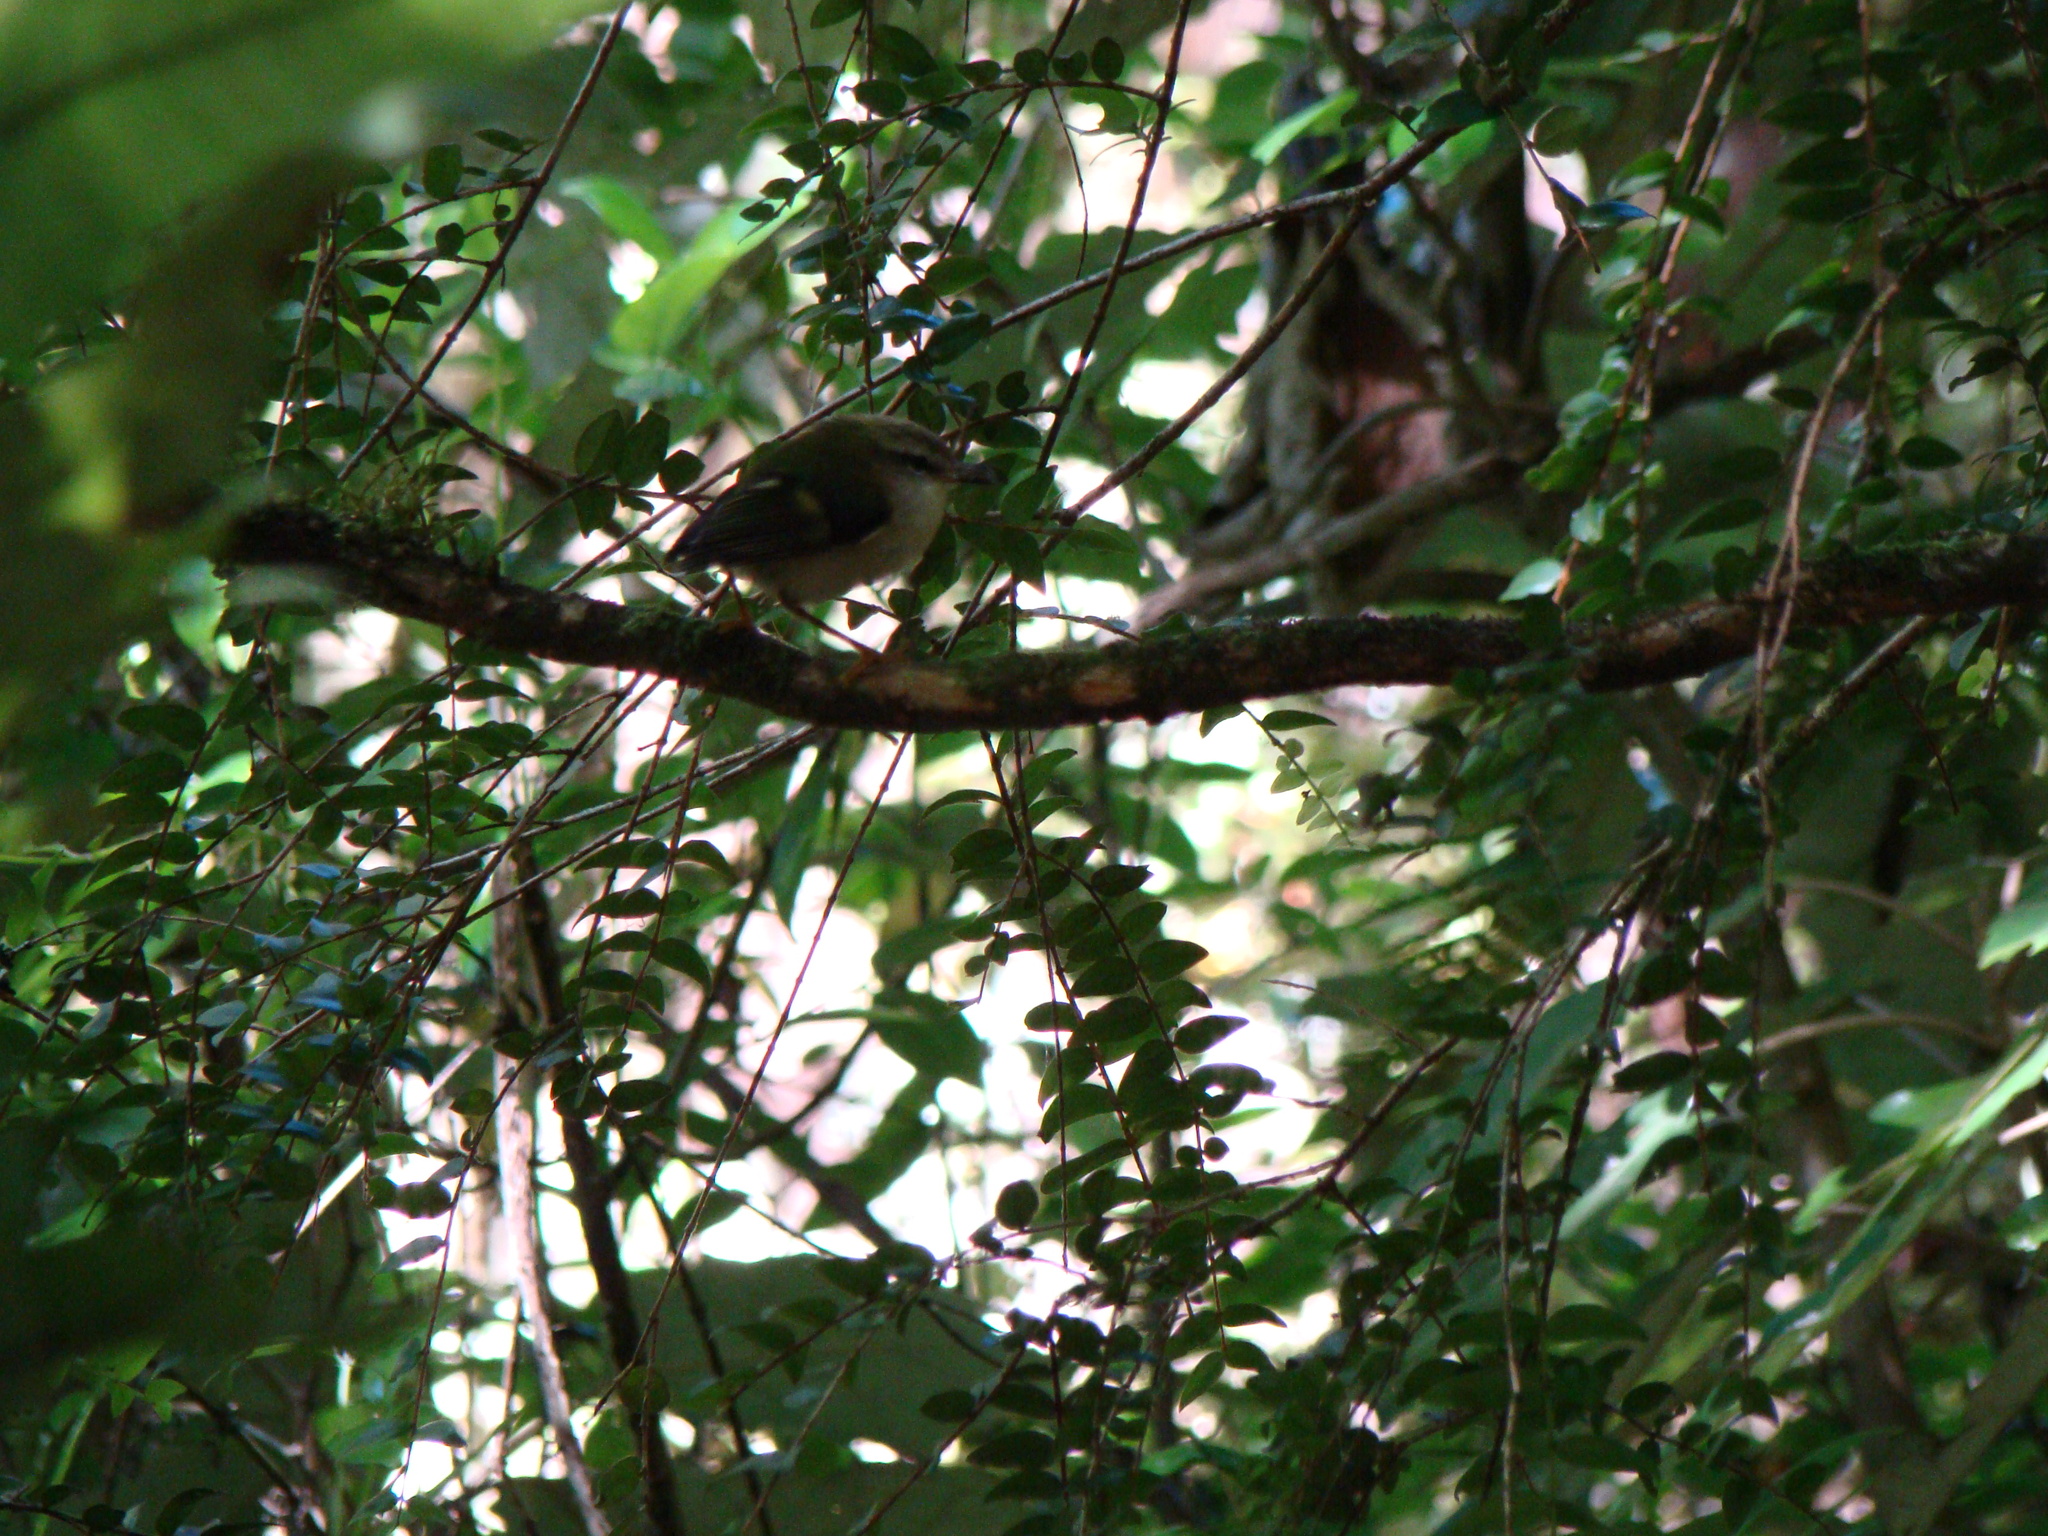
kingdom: Animalia
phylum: Chordata
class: Aves
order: Passeriformes
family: Acanthisittidae
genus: Acanthisitta
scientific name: Acanthisitta chloris
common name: Rifleman
